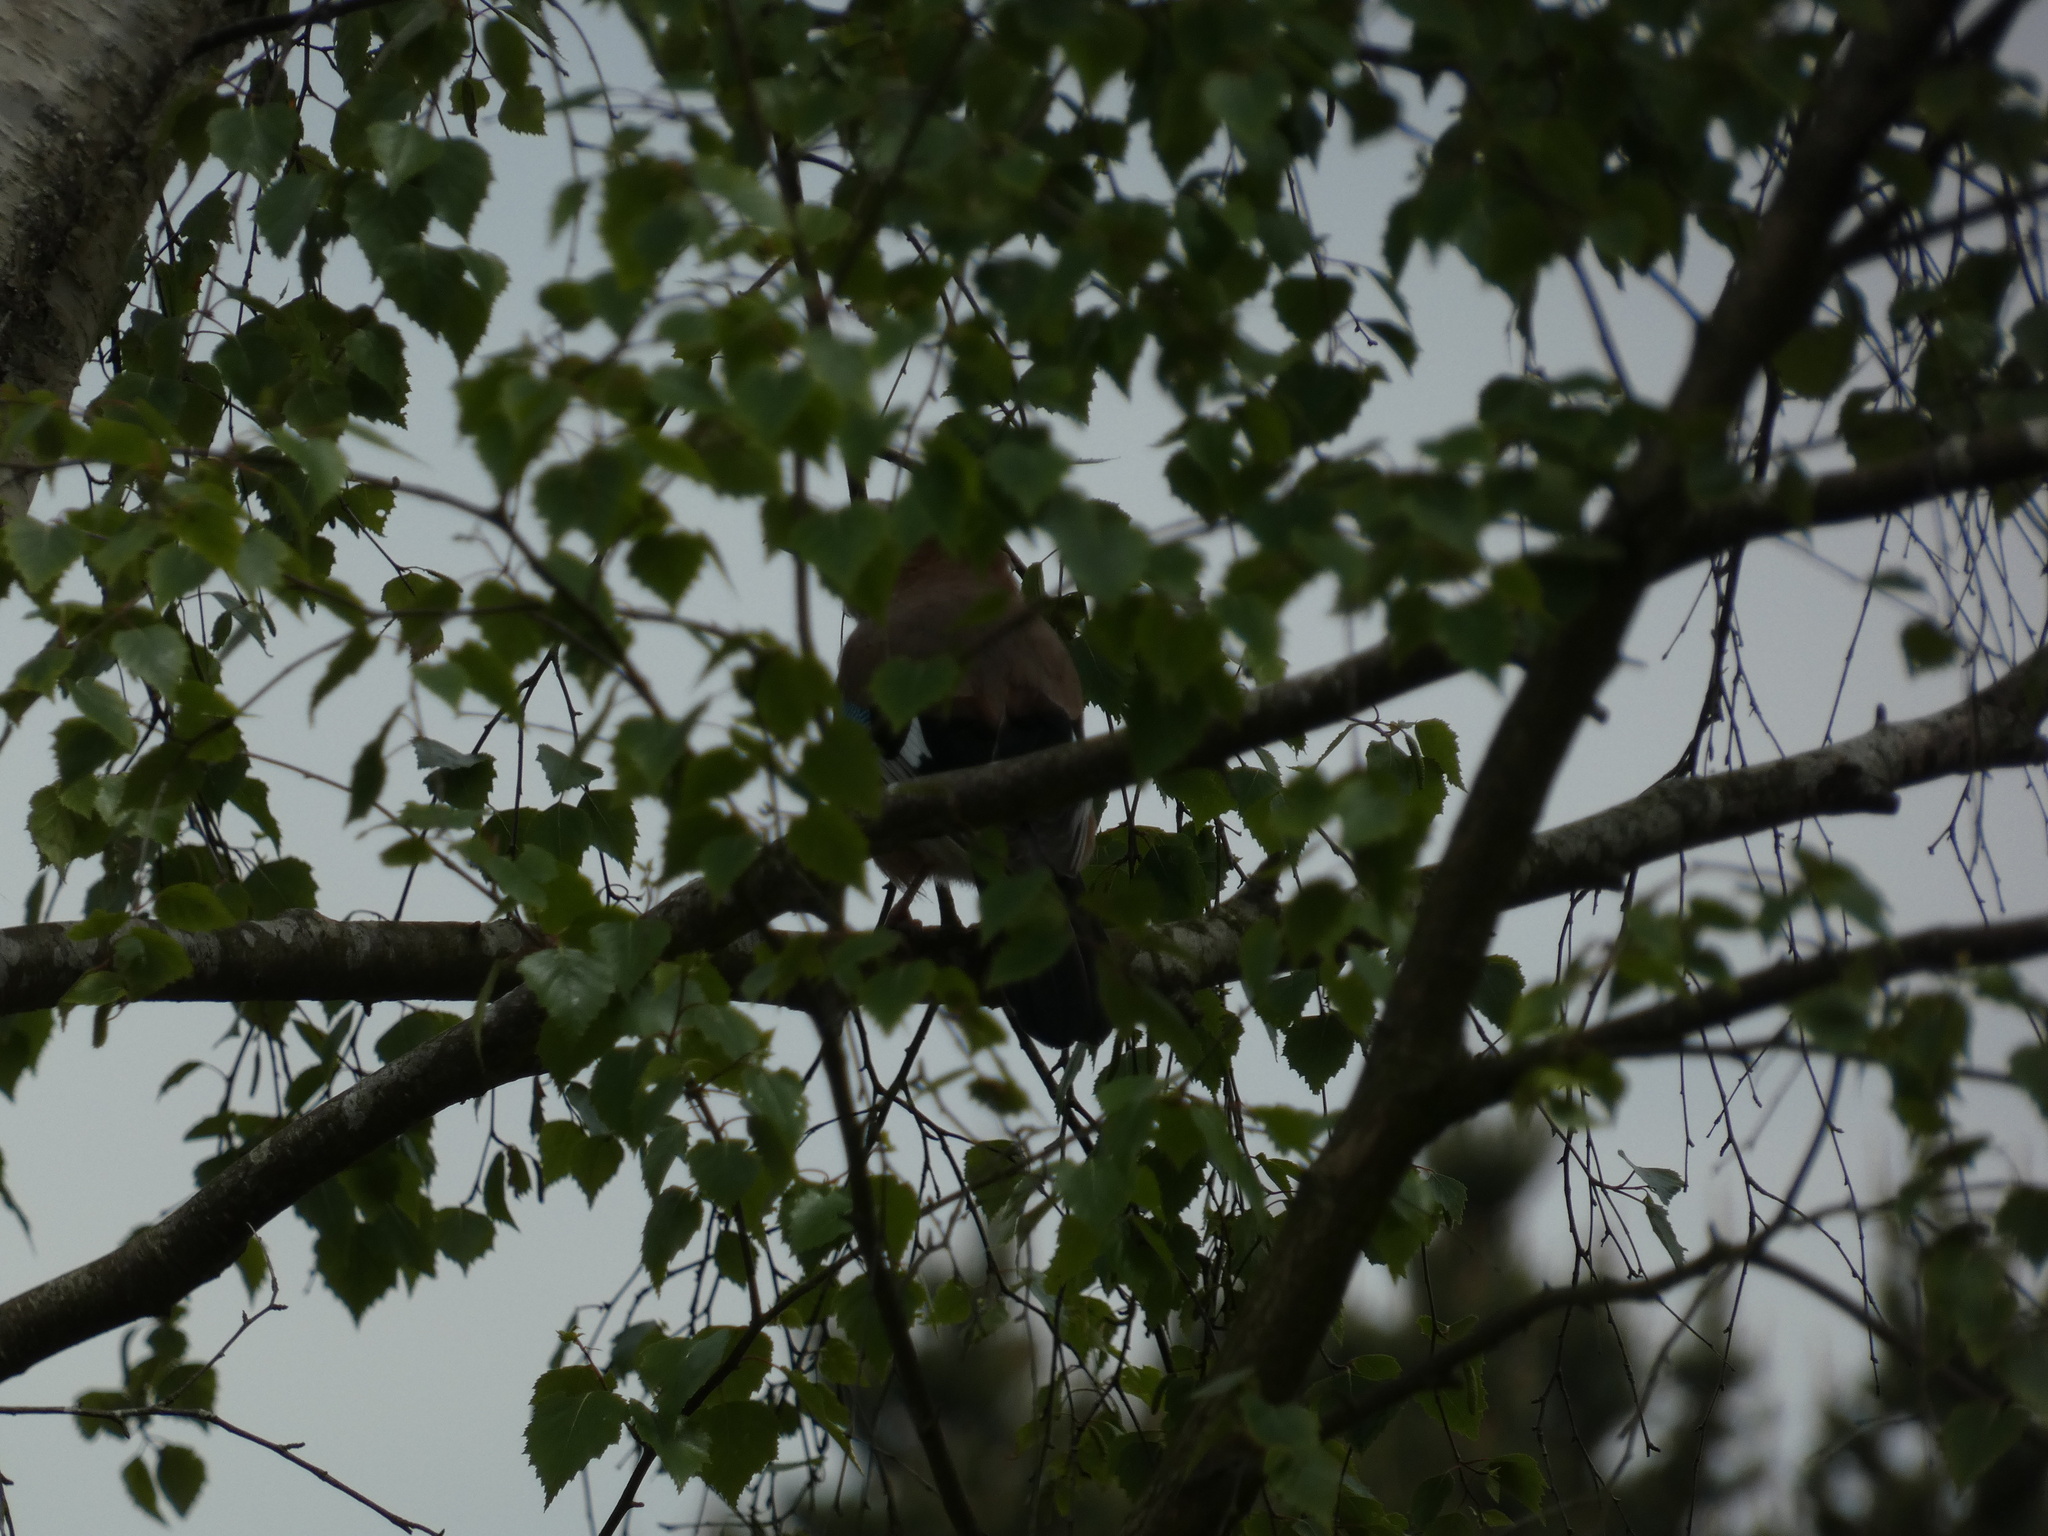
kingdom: Animalia
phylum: Chordata
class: Aves
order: Passeriformes
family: Corvidae
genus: Garrulus
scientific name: Garrulus glandarius
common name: Eurasian jay
